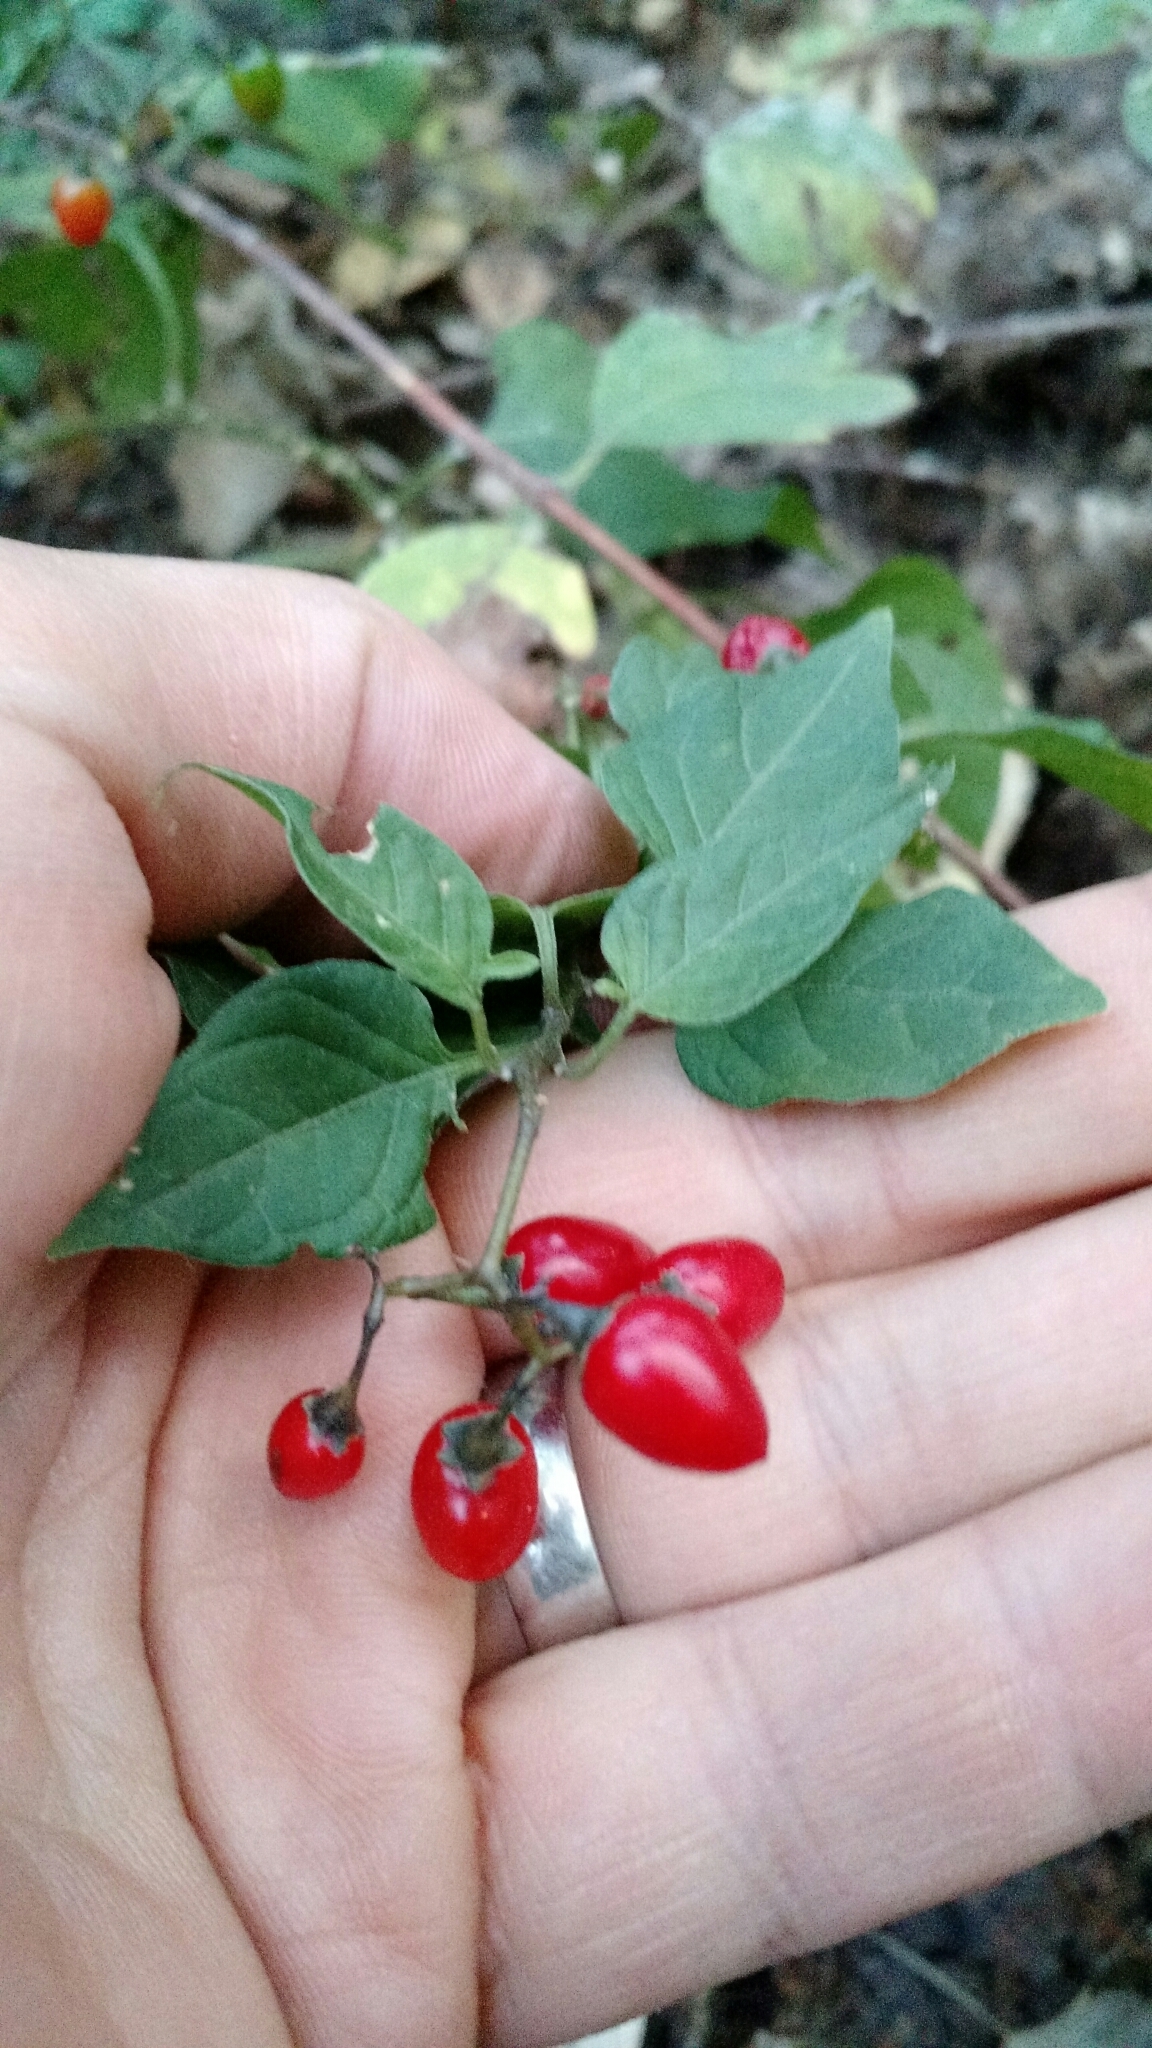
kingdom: Plantae
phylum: Tracheophyta
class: Magnoliopsida
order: Solanales
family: Solanaceae
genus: Solanum
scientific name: Solanum dulcamara
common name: Climbing nightshade
